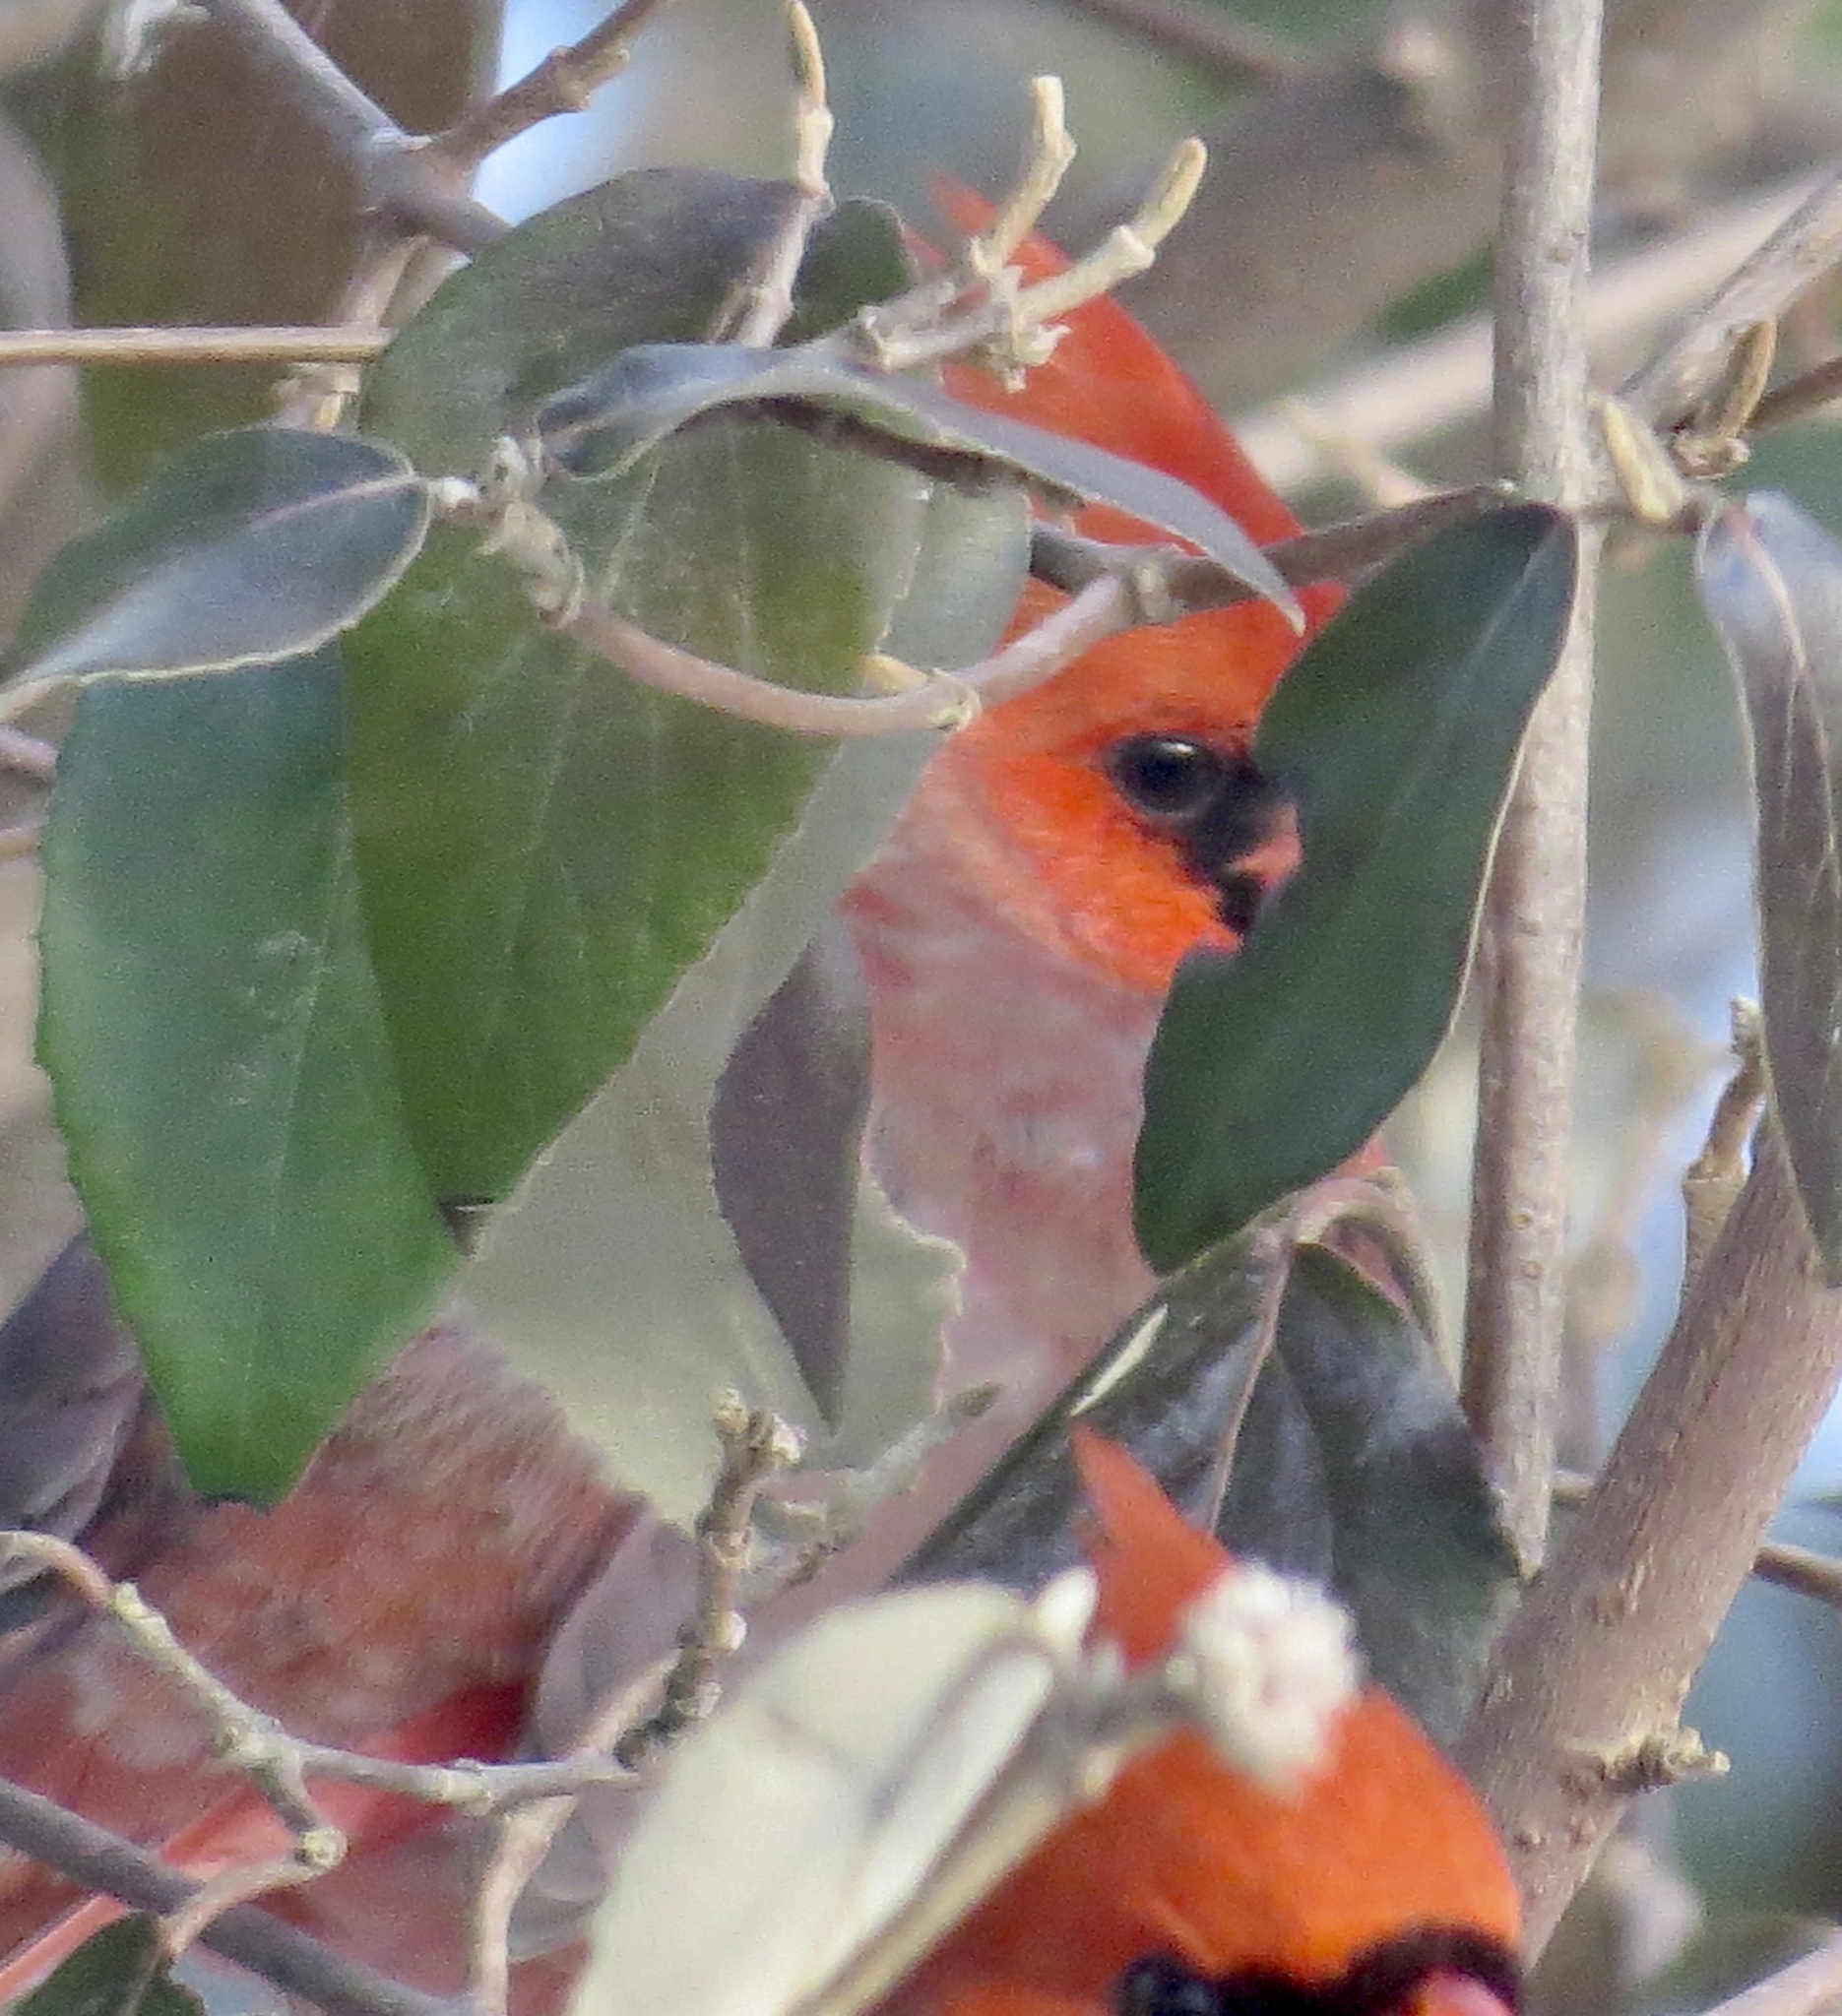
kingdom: Animalia
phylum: Chordata
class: Aves
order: Passeriformes
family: Cardinalidae
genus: Cardinalis
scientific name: Cardinalis cardinalis
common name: Northern cardinal
